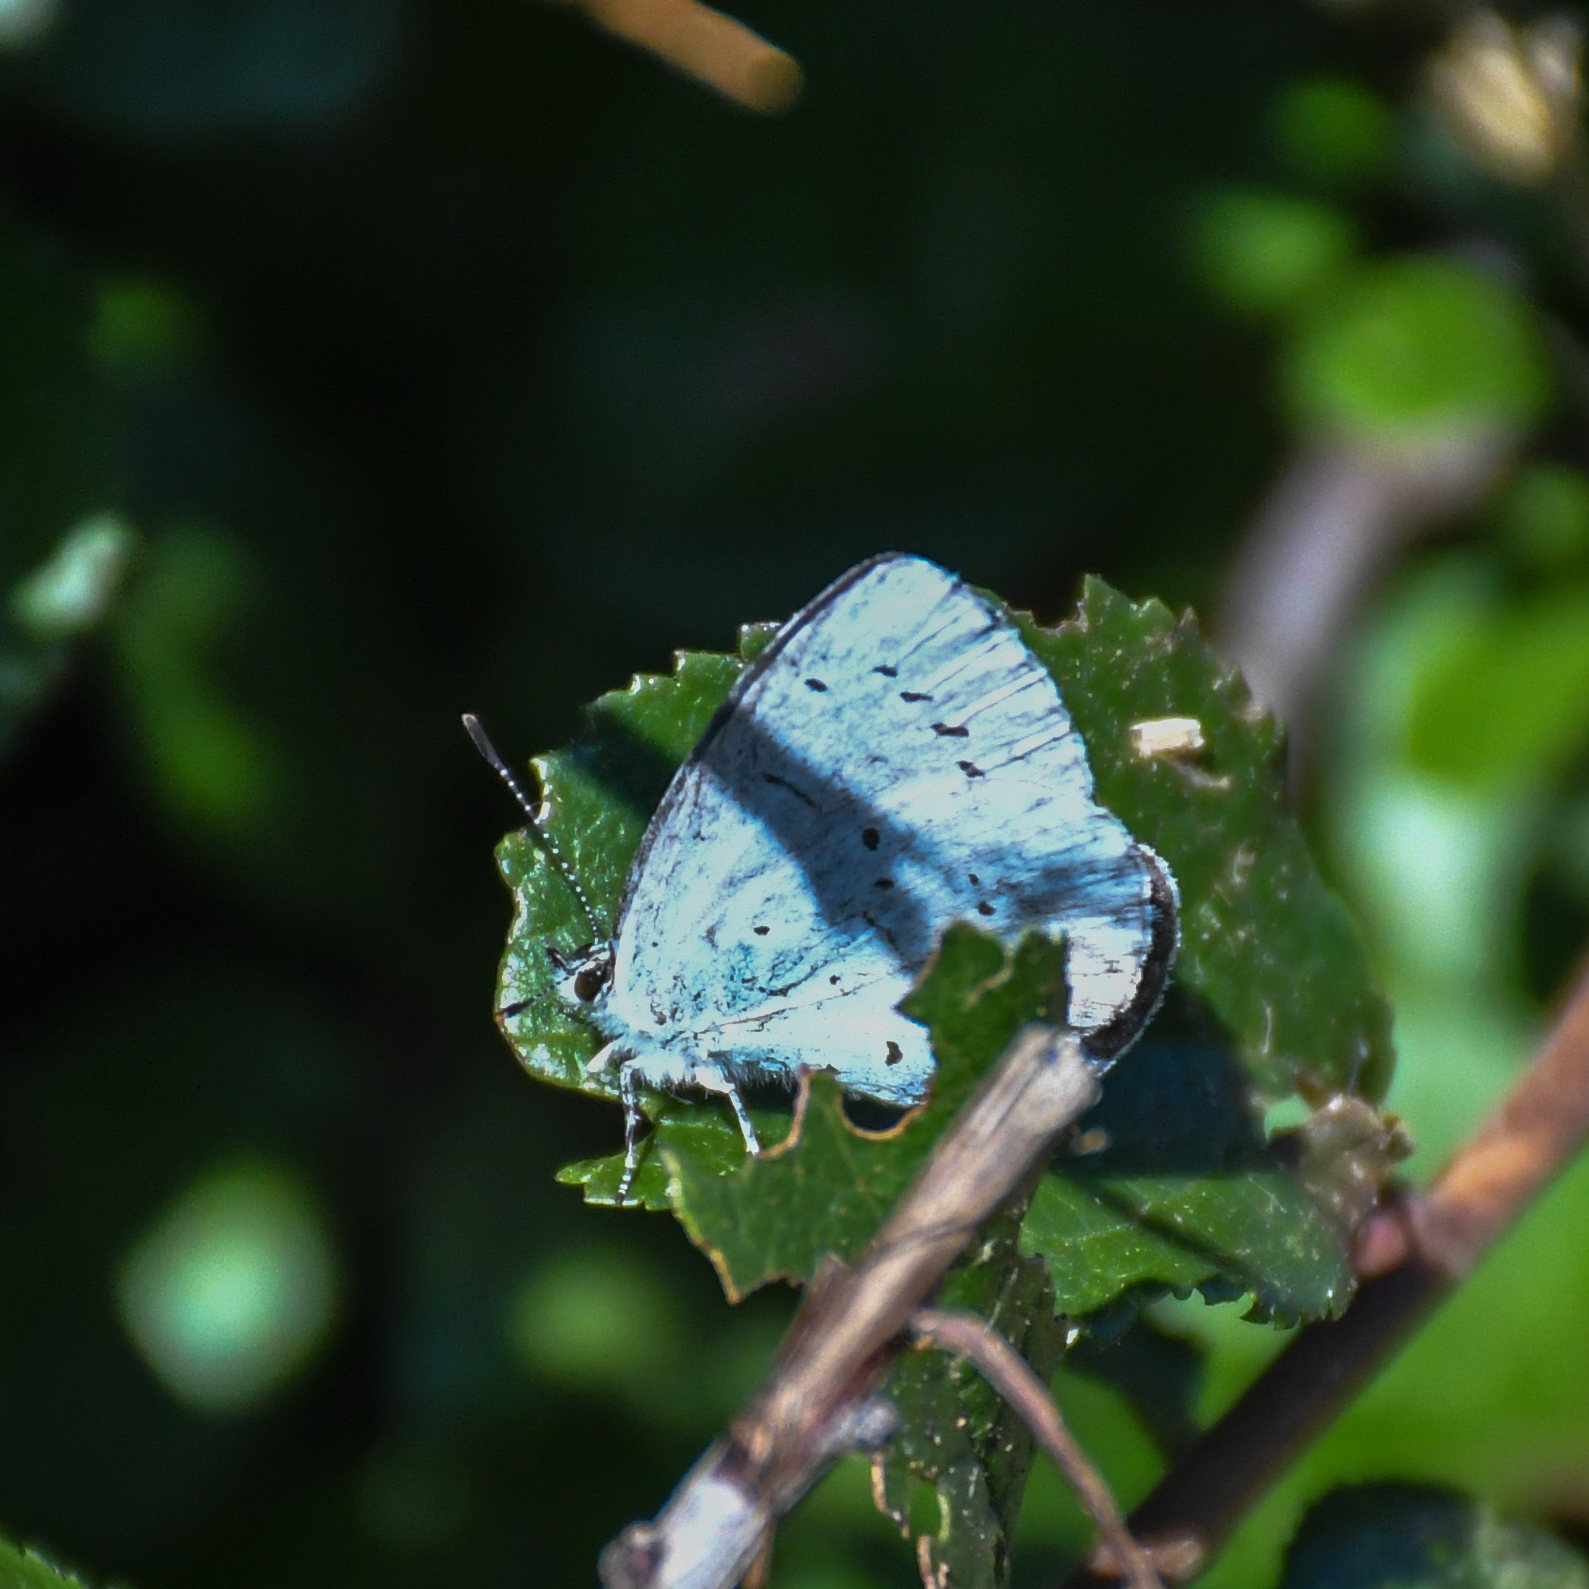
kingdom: Animalia
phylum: Arthropoda
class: Insecta
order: Lepidoptera
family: Lycaenidae
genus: Celastrina
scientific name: Celastrina argiolus
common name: Holly blue
